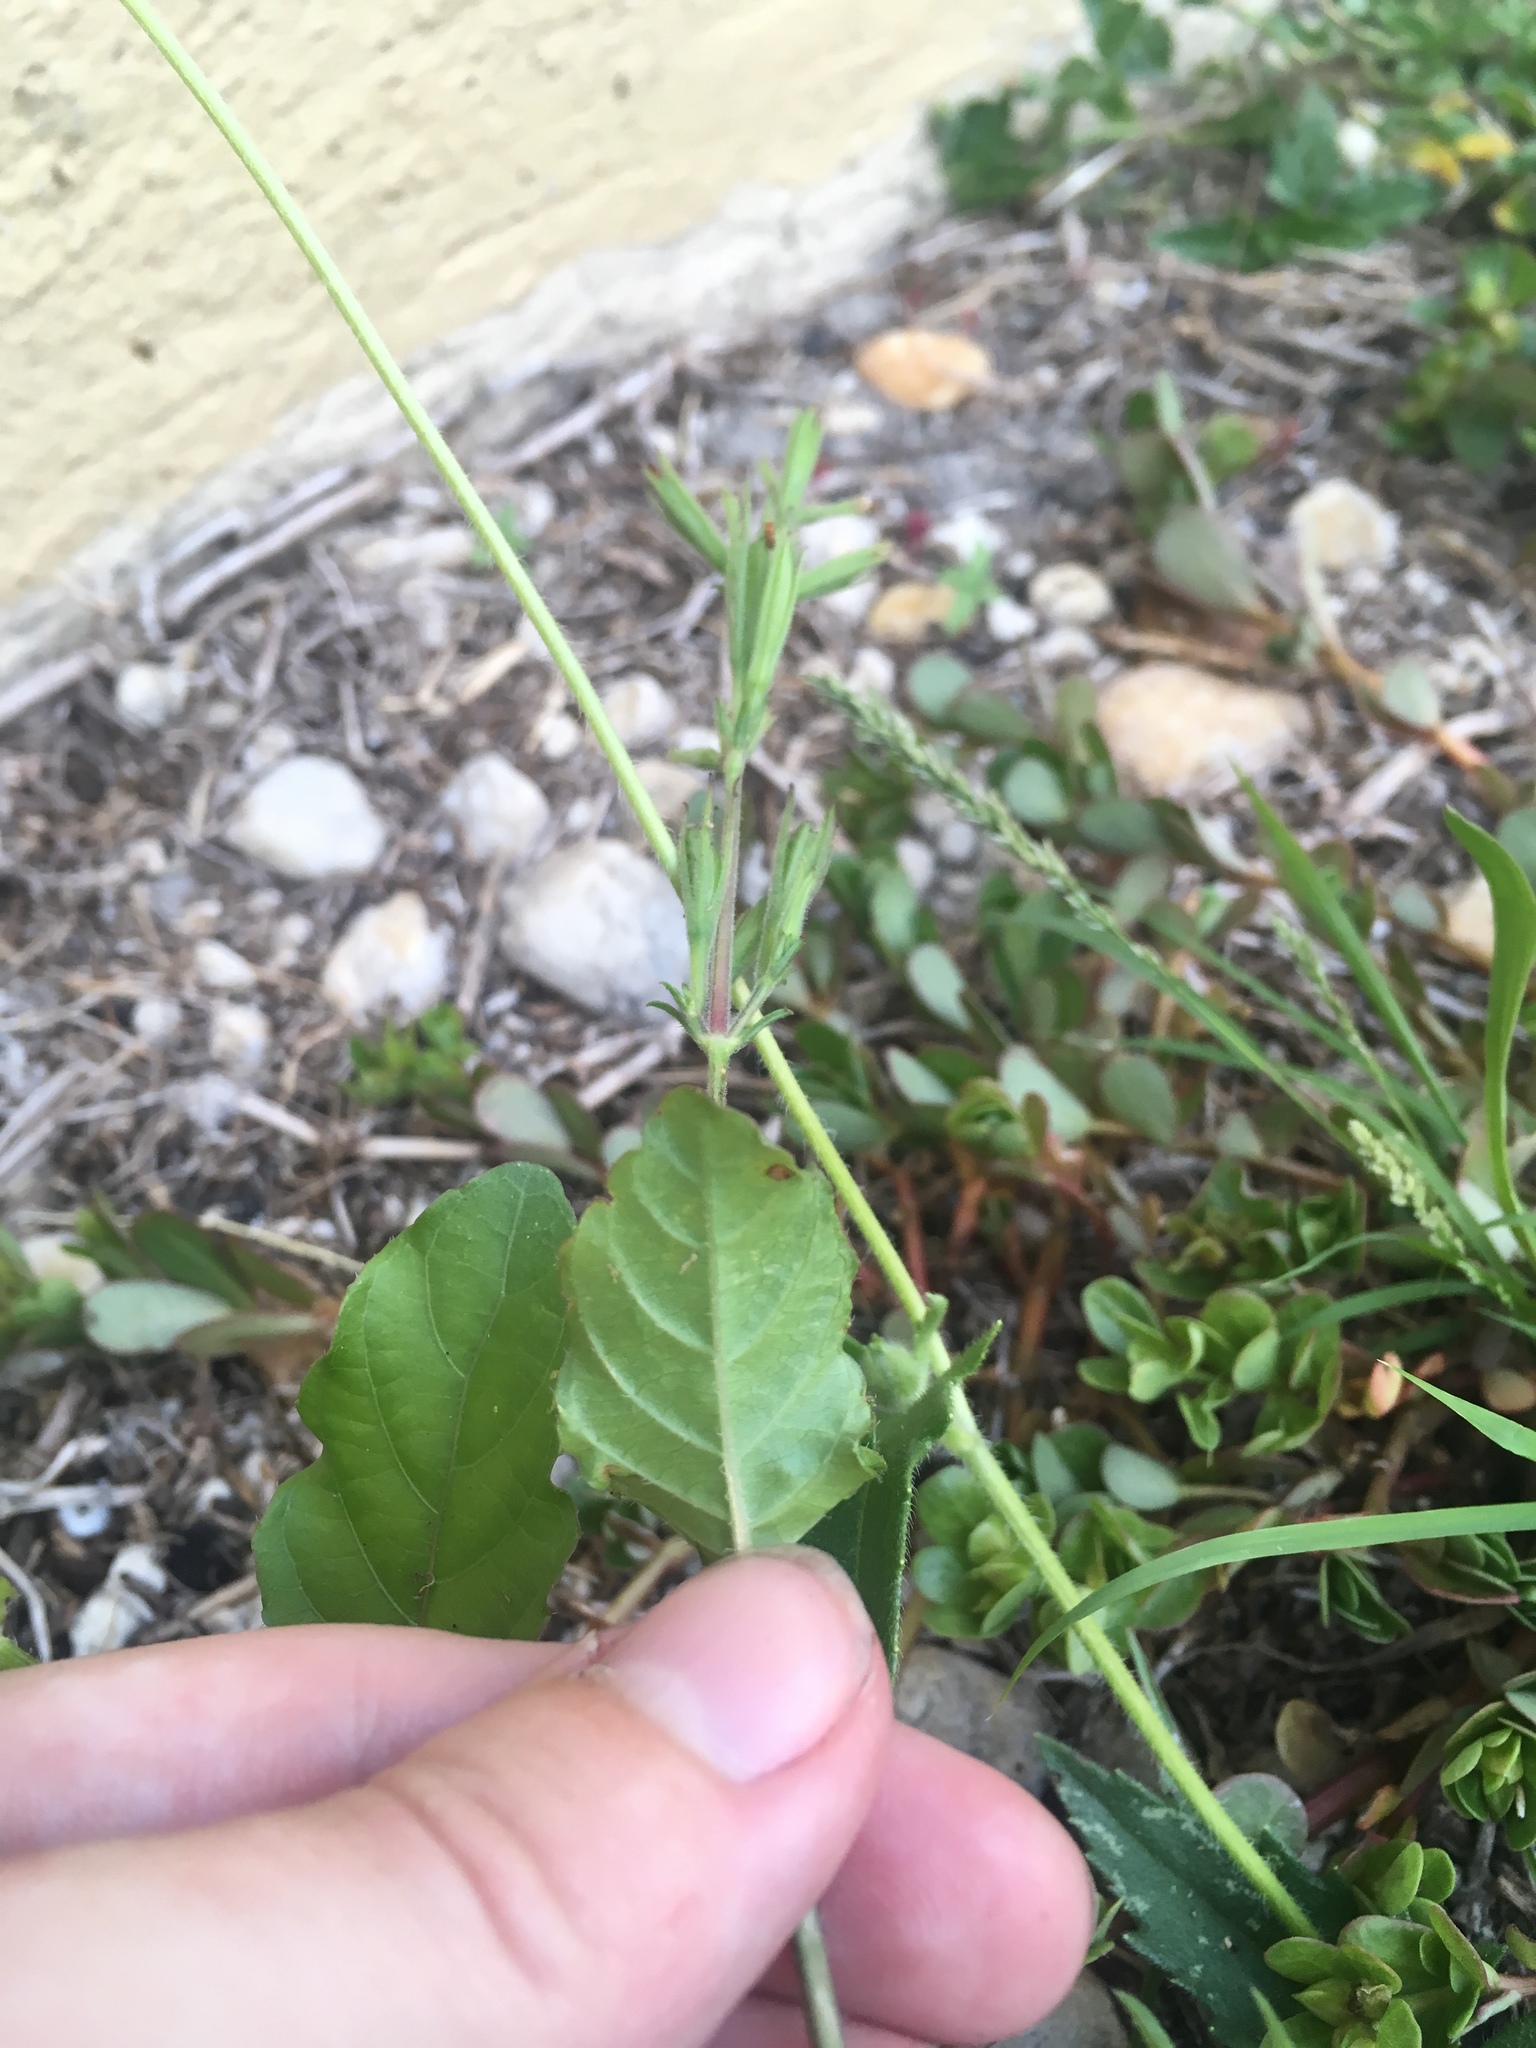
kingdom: Plantae
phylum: Tracheophyta
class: Magnoliopsida
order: Lamiales
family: Acanthaceae
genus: Ruellia
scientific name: Ruellia ciliatiflora
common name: Hairyflower wild petunia
